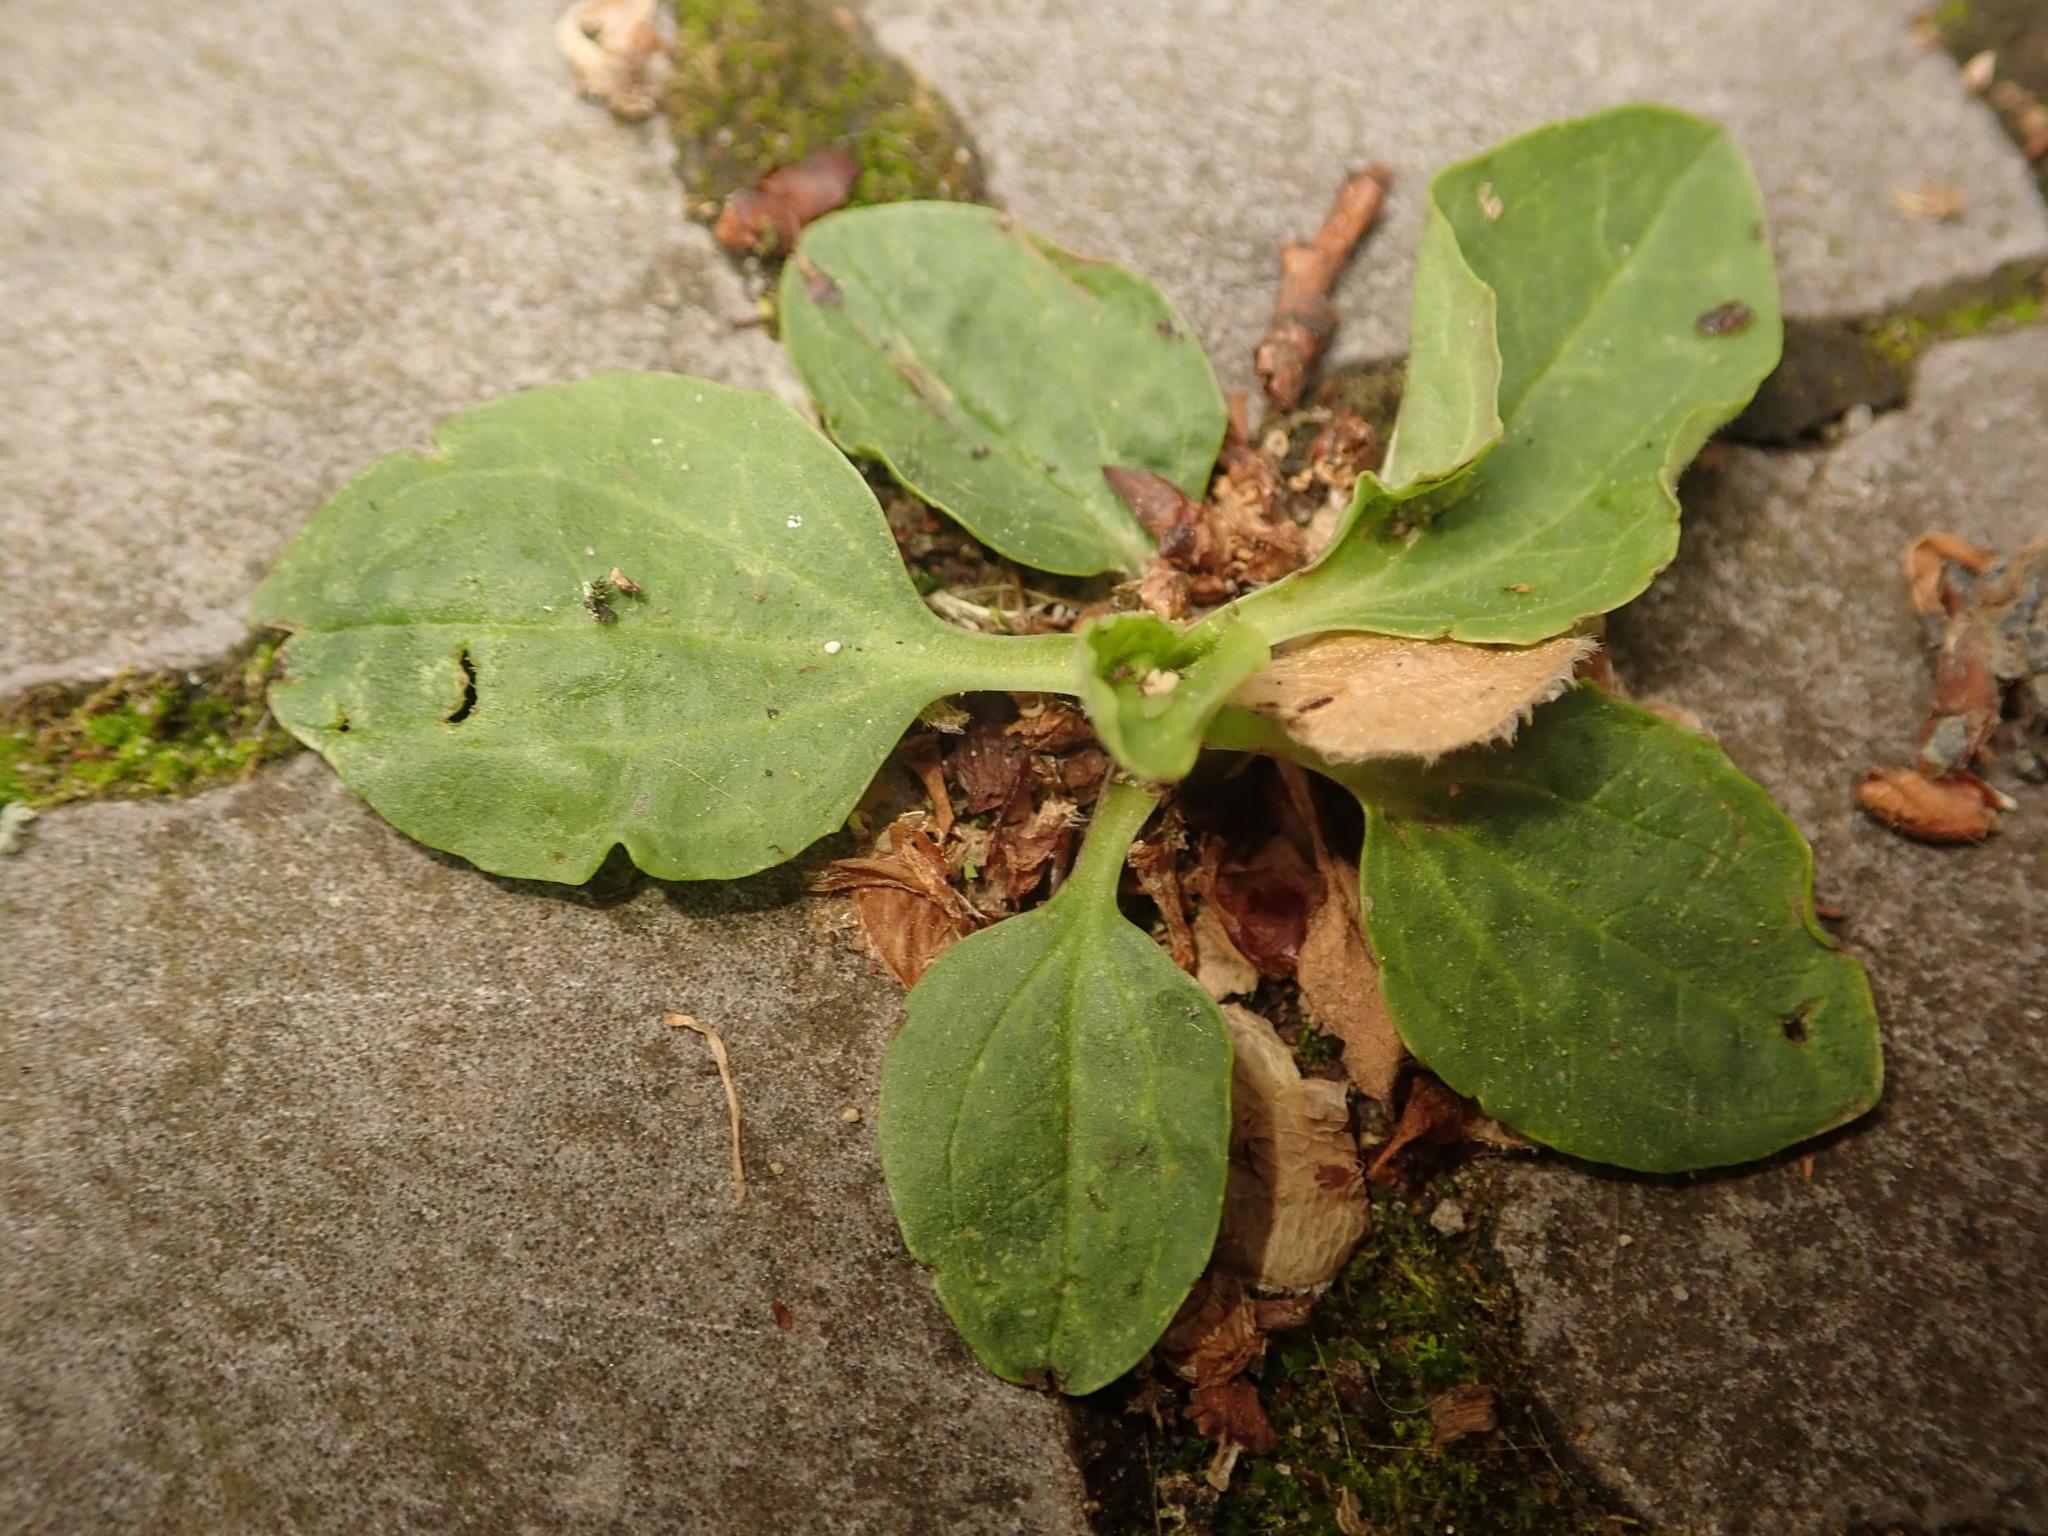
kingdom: Plantae
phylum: Tracheophyta
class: Magnoliopsida
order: Lamiales
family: Plantaginaceae
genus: Plantago
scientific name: Plantago major
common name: Common plantain
